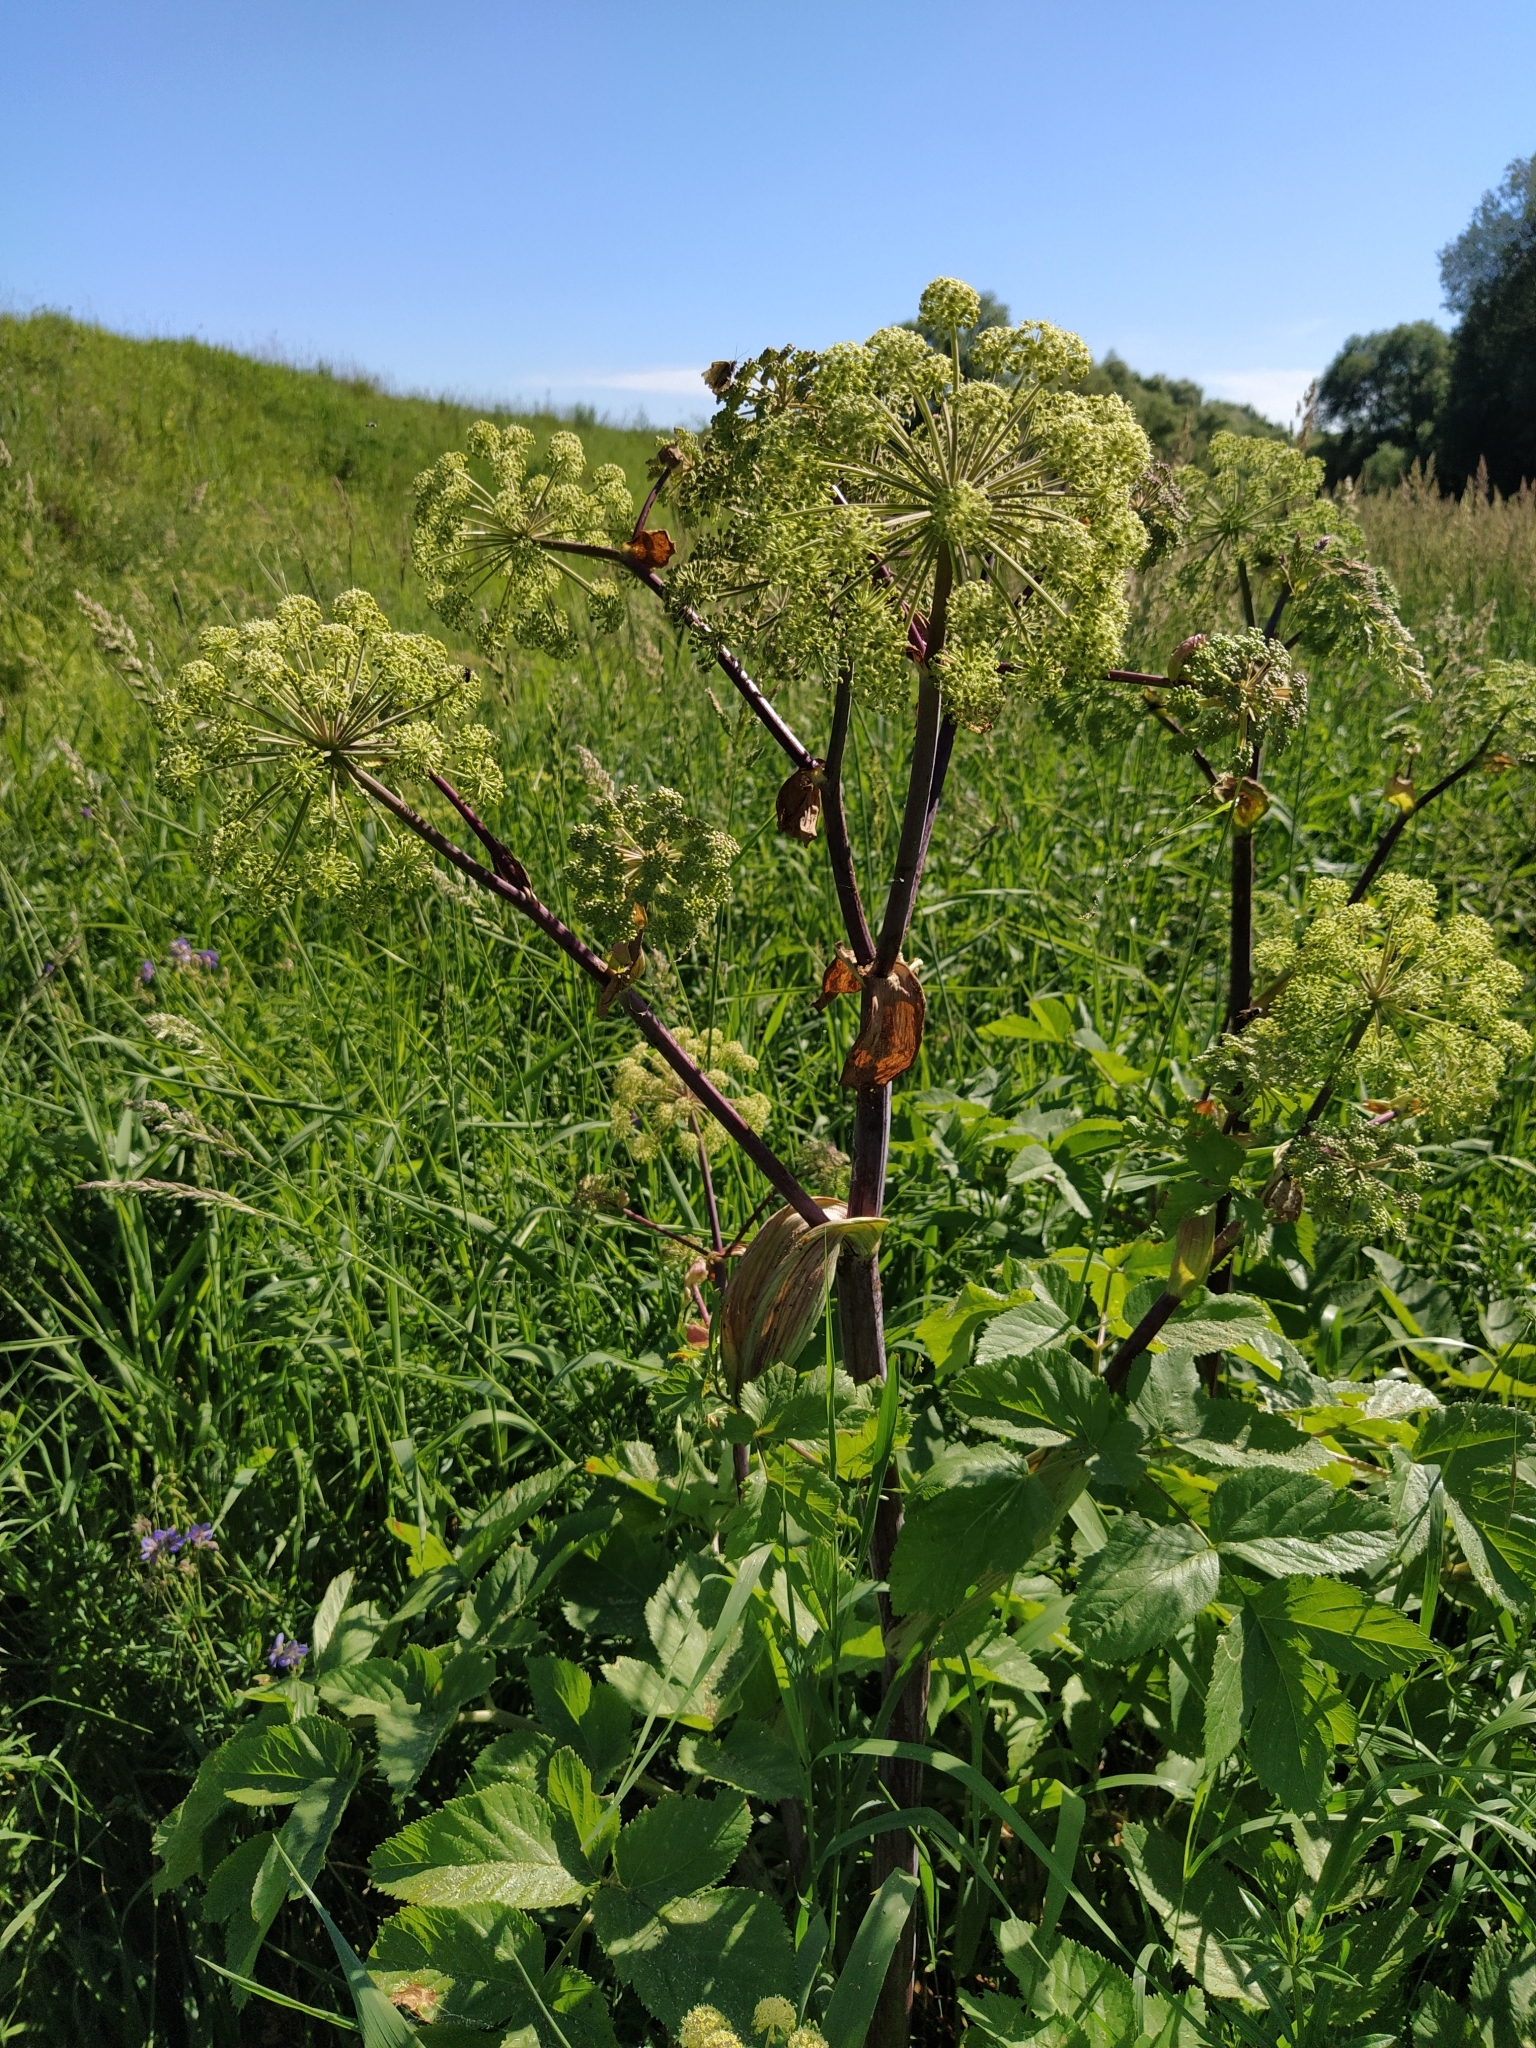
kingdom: Plantae
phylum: Tracheophyta
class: Magnoliopsida
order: Apiales
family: Apiaceae
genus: Angelica
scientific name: Angelica archangelica
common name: Garden angelica
